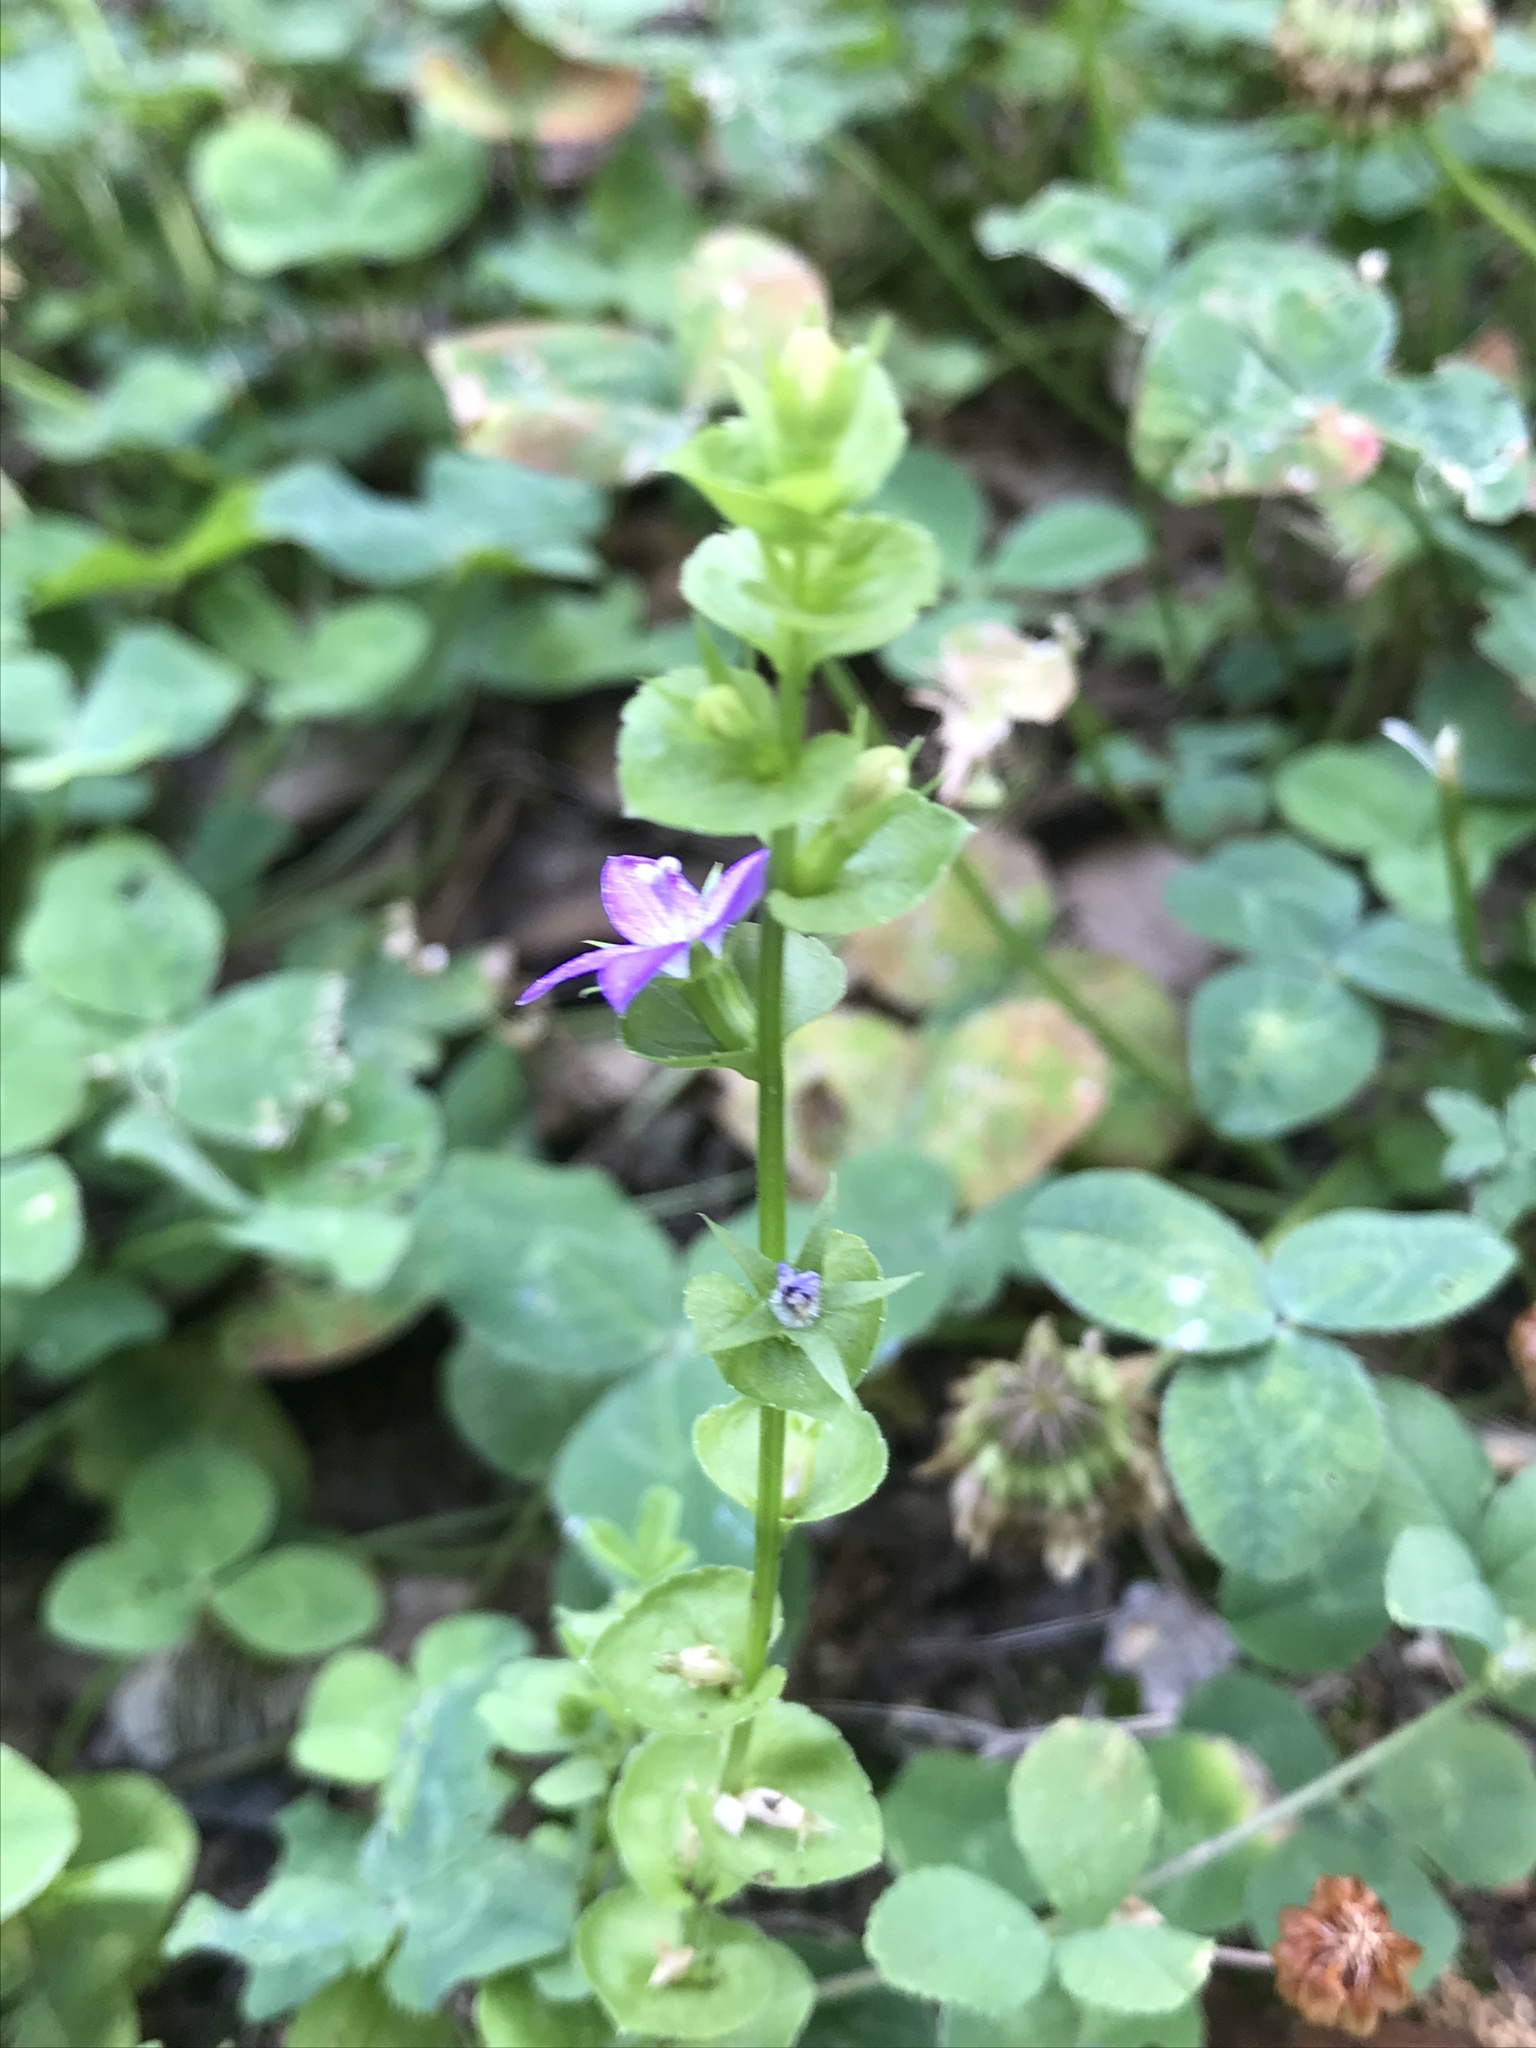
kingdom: Plantae
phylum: Tracheophyta
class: Magnoliopsida
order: Asterales
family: Campanulaceae
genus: Triodanis
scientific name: Triodanis perfoliata
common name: Clasping venus' looking-glass
